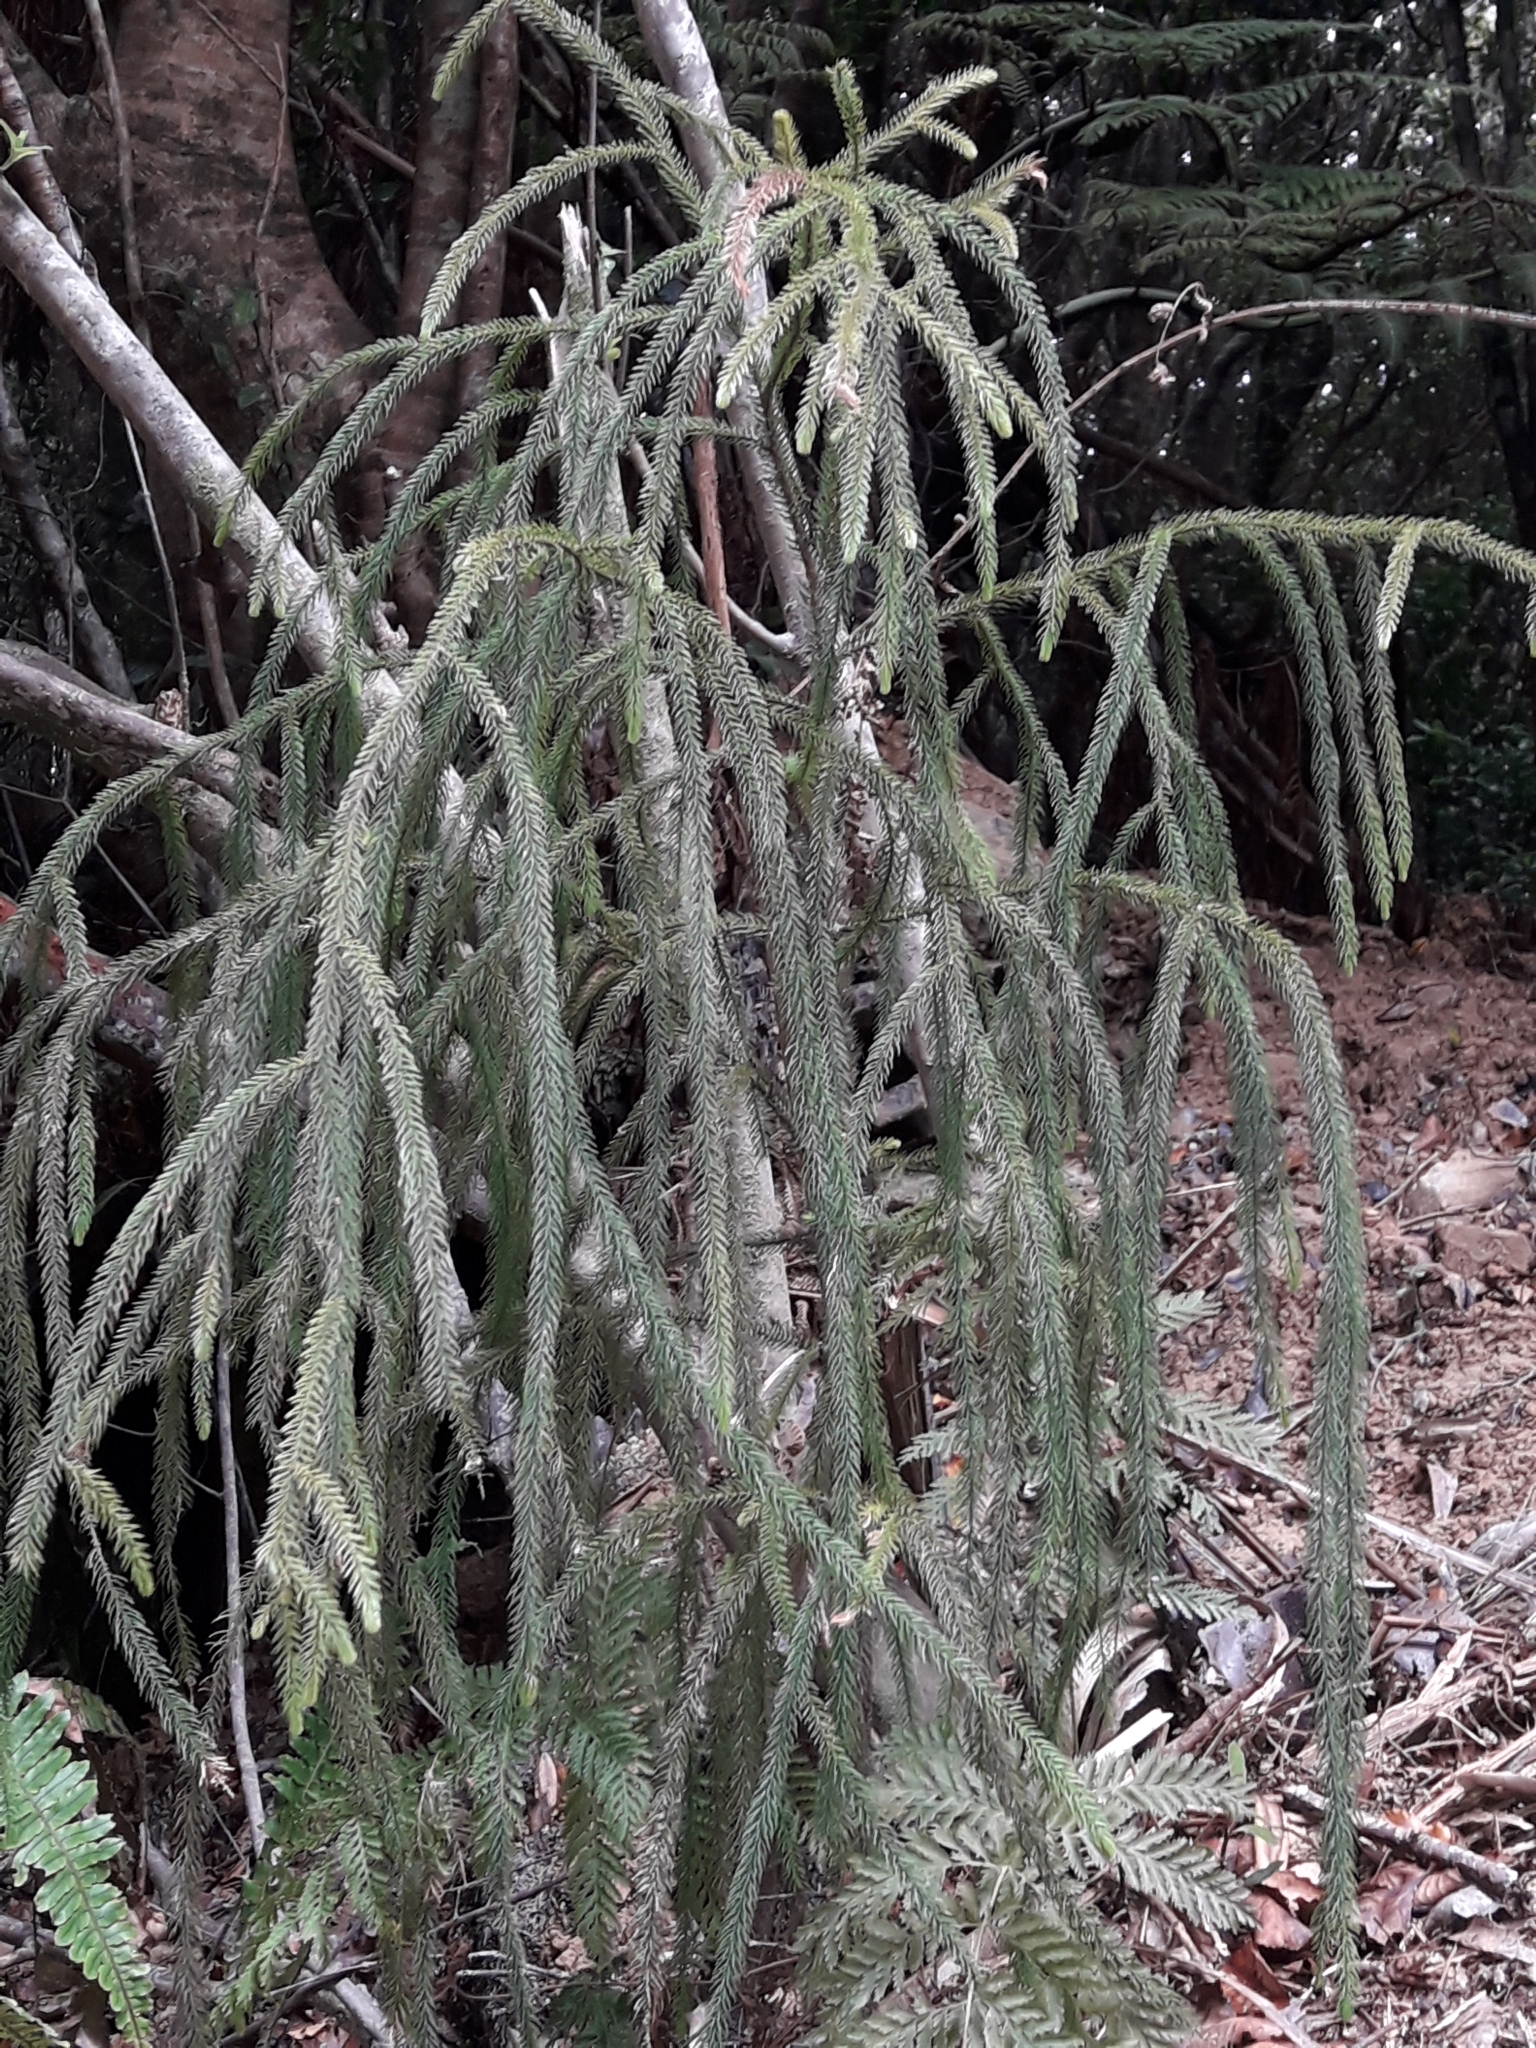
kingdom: Plantae
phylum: Tracheophyta
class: Pinopsida
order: Pinales
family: Podocarpaceae
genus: Dacrydium
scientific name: Dacrydium cupressinum
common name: Red pine
